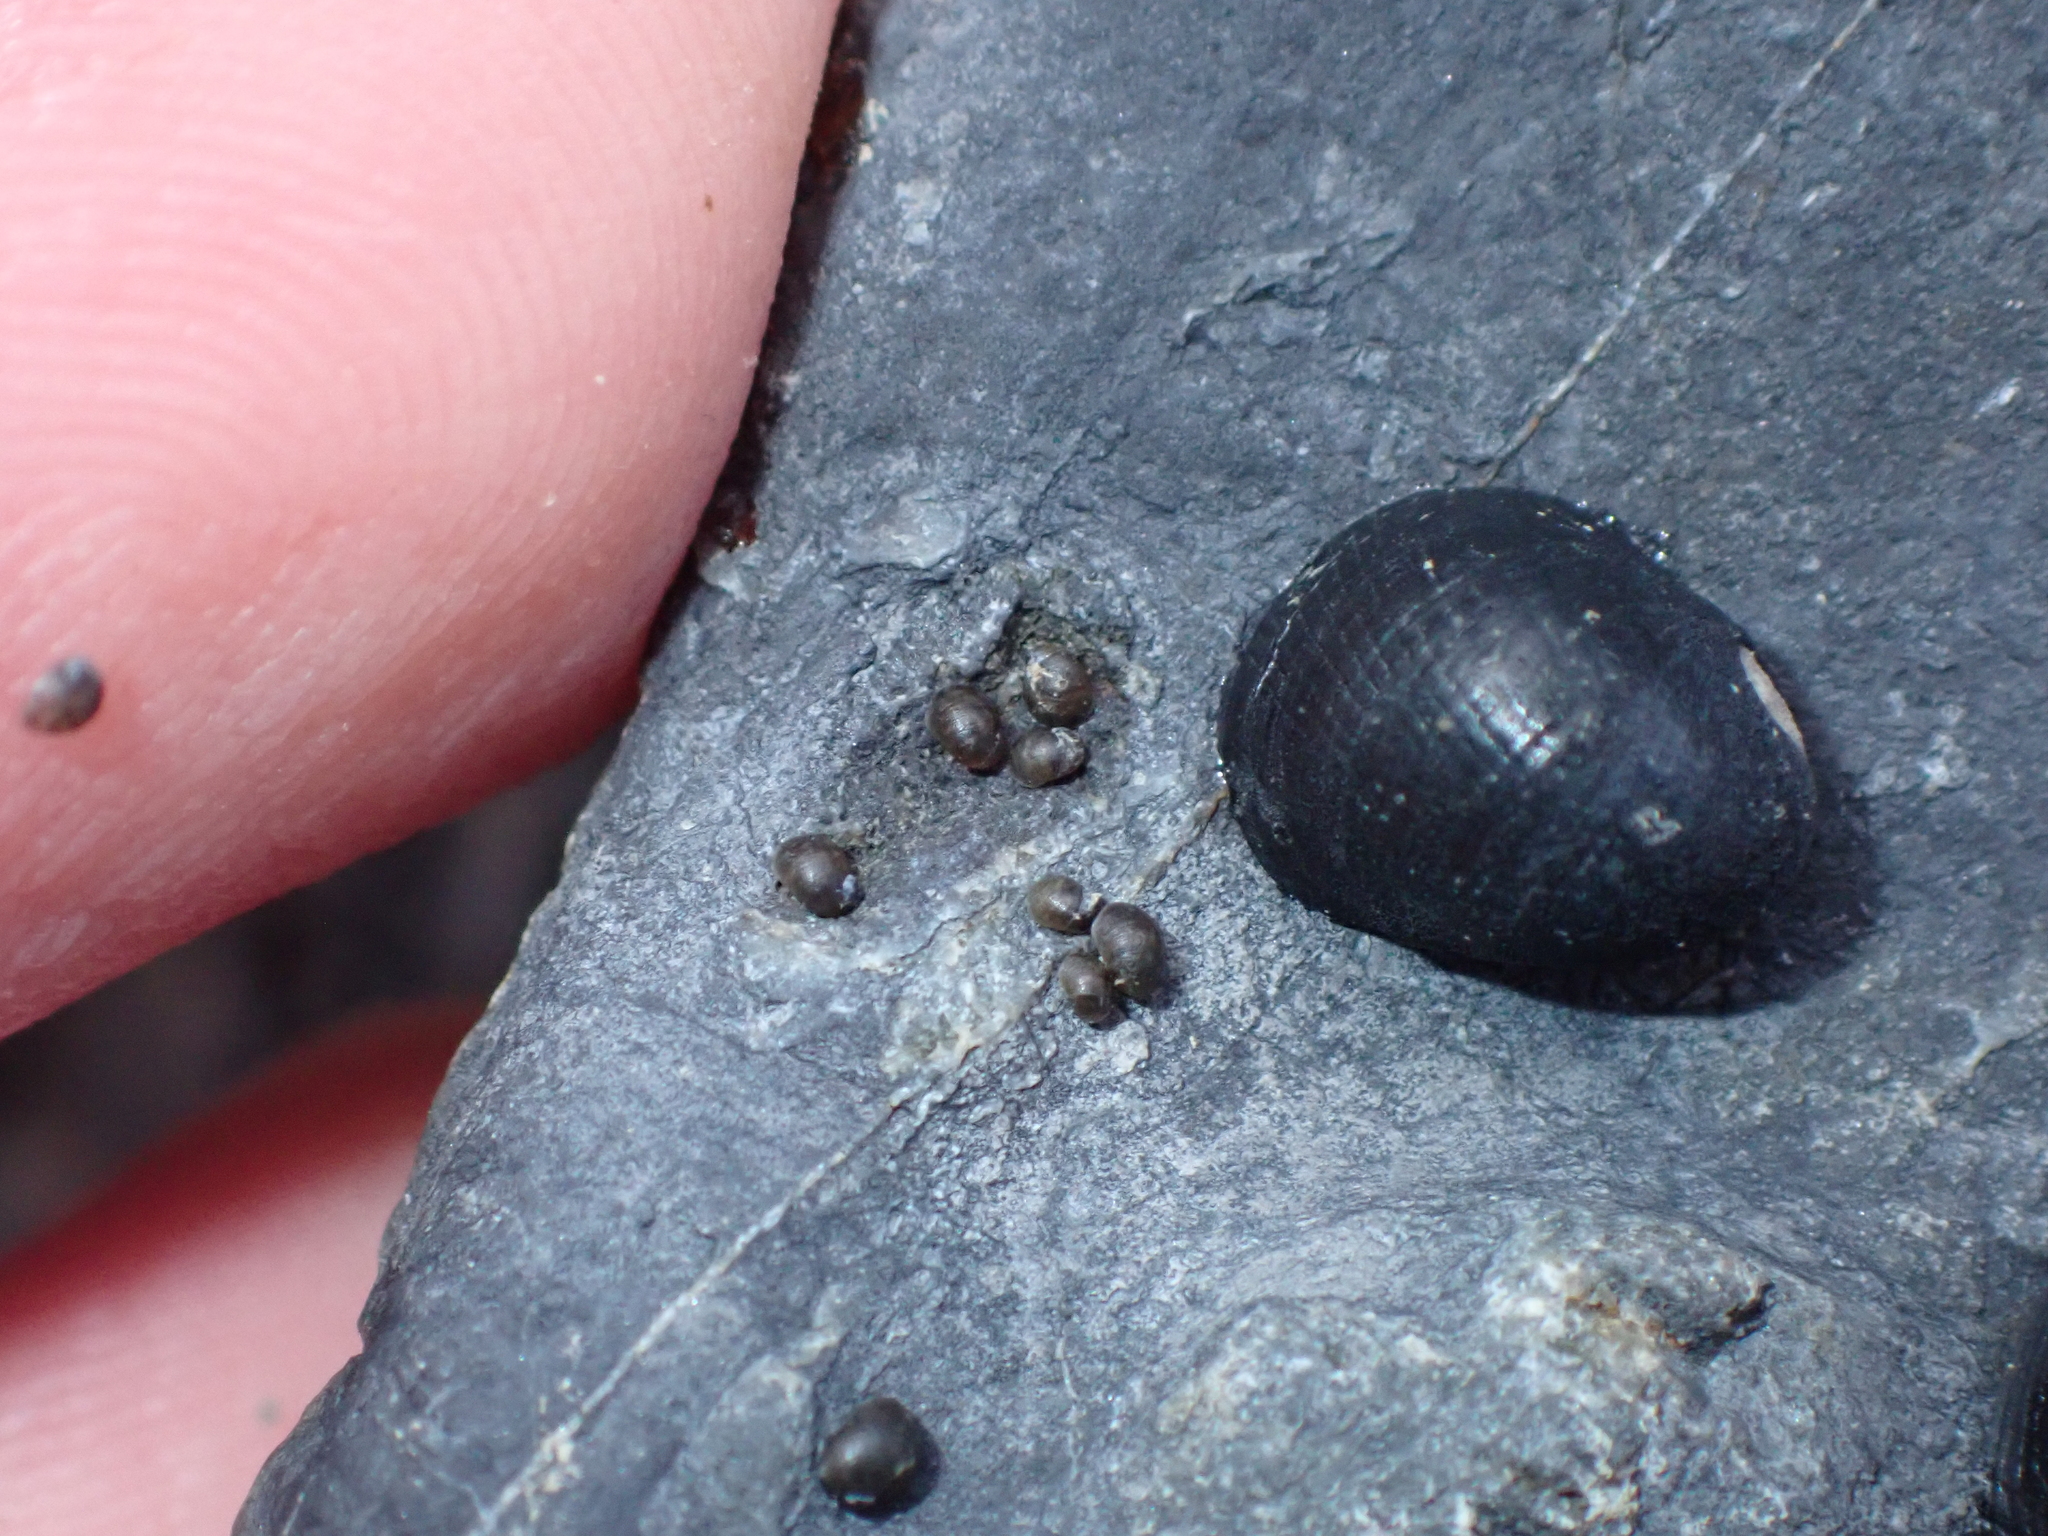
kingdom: Animalia
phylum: Mollusca
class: Gastropoda
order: Cycloneritida
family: Neritidae
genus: Nerita
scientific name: Nerita melanotragus
